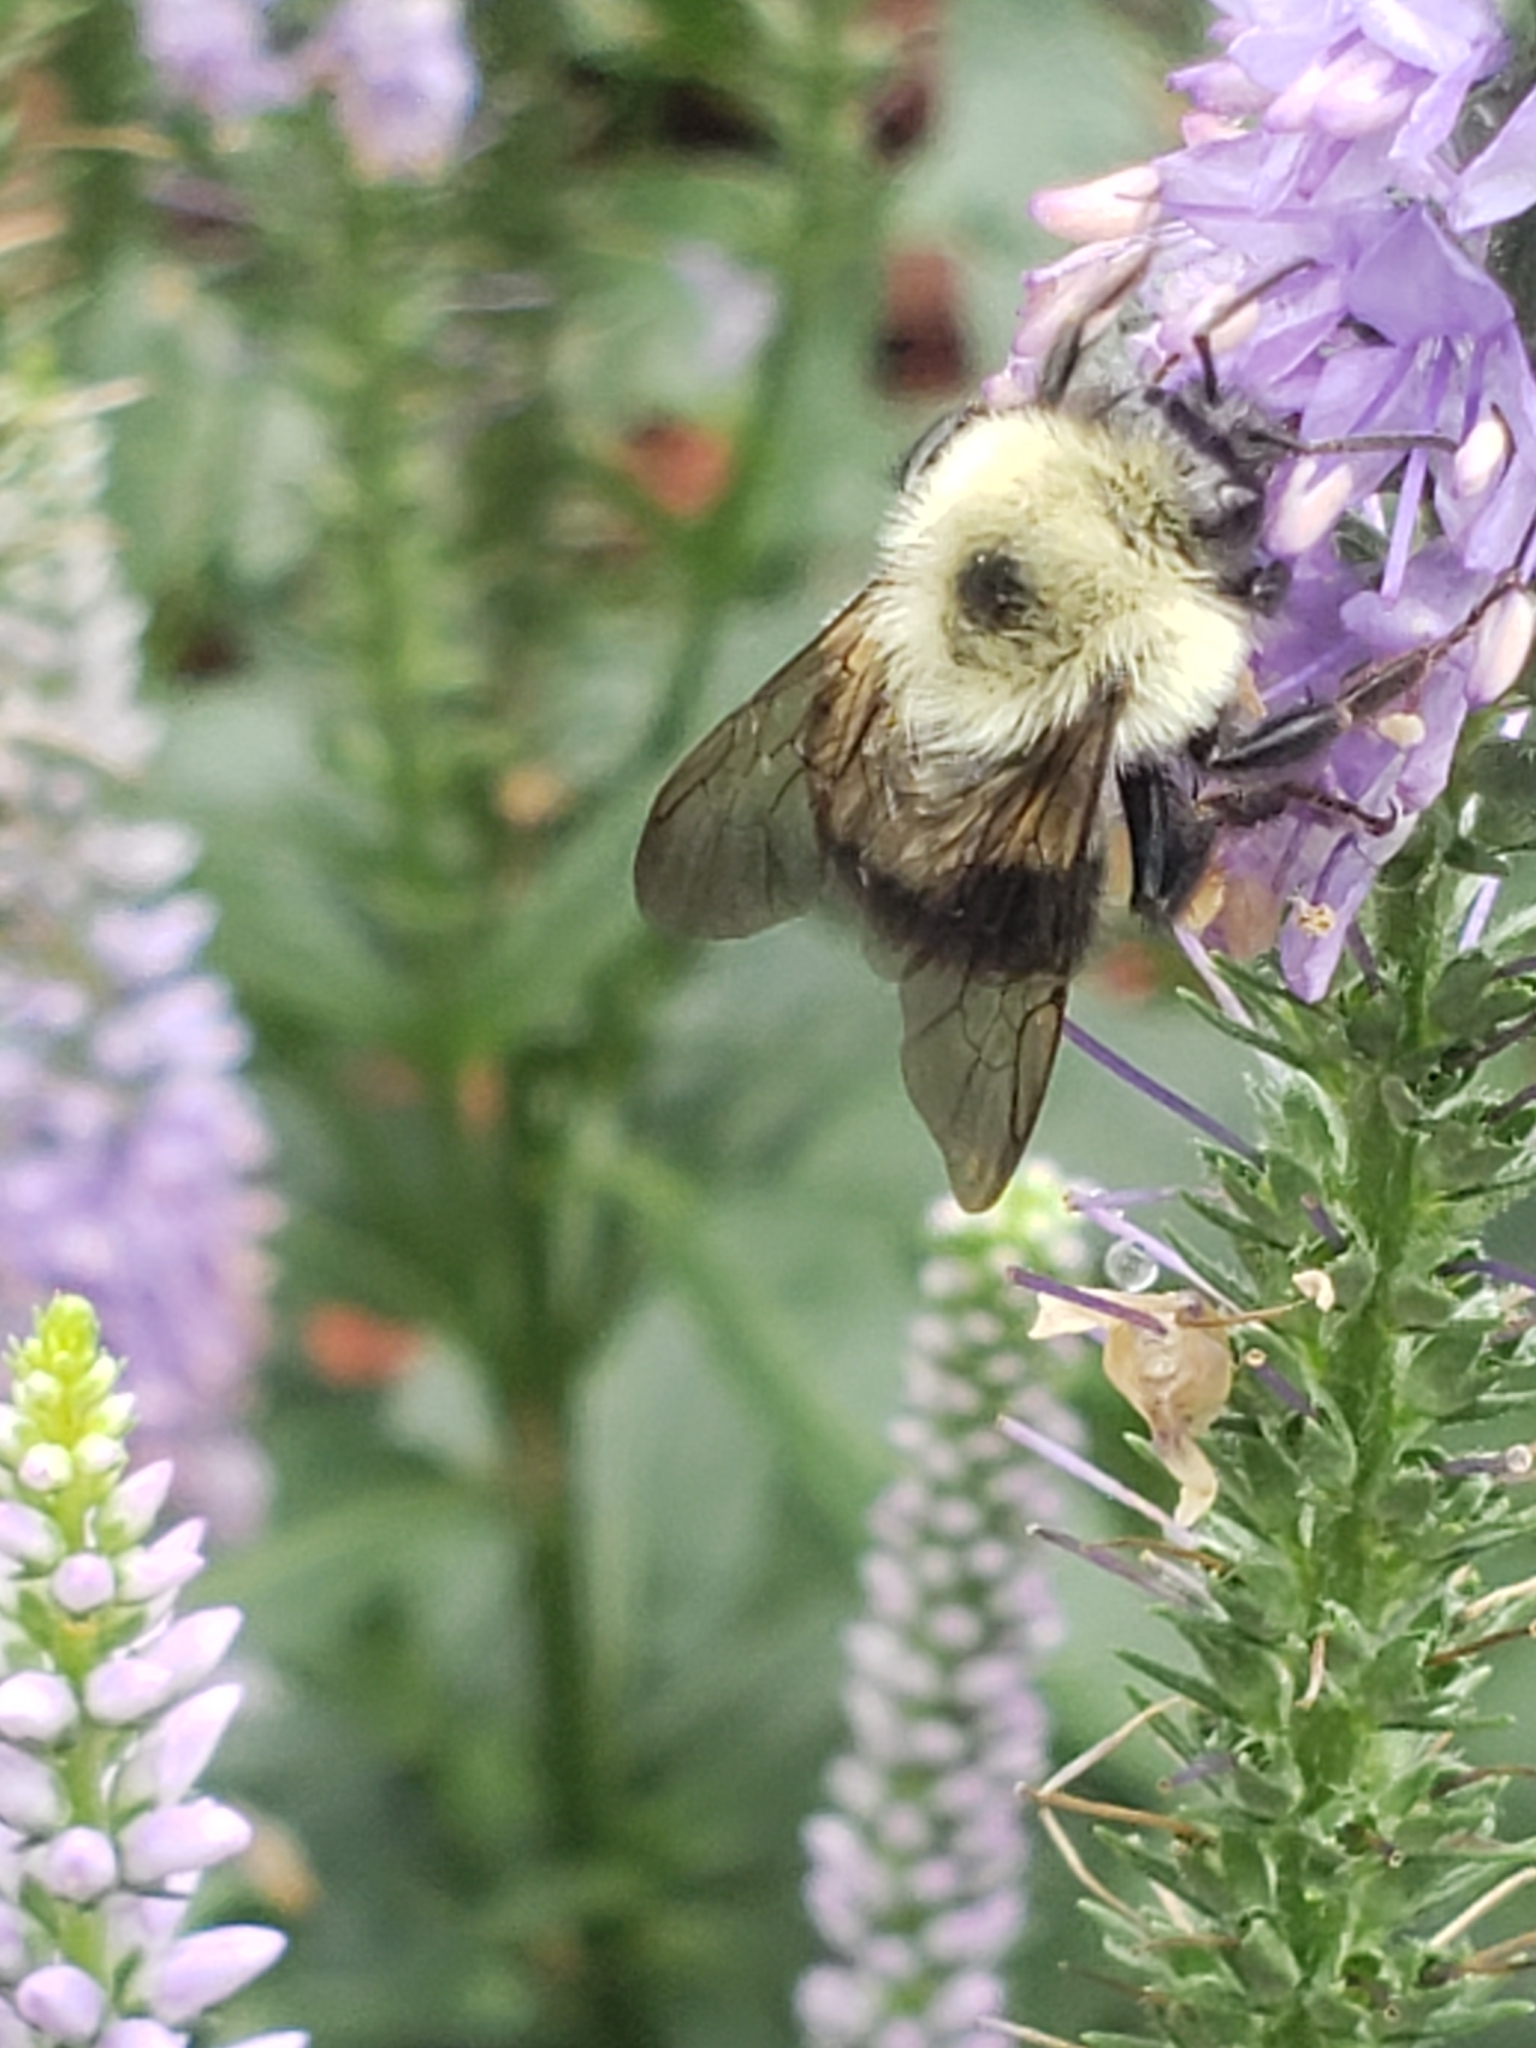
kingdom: Animalia
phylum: Arthropoda
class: Insecta
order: Hymenoptera
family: Apidae
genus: Bombus
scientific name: Bombus bimaculatus
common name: Two-spotted bumble bee
